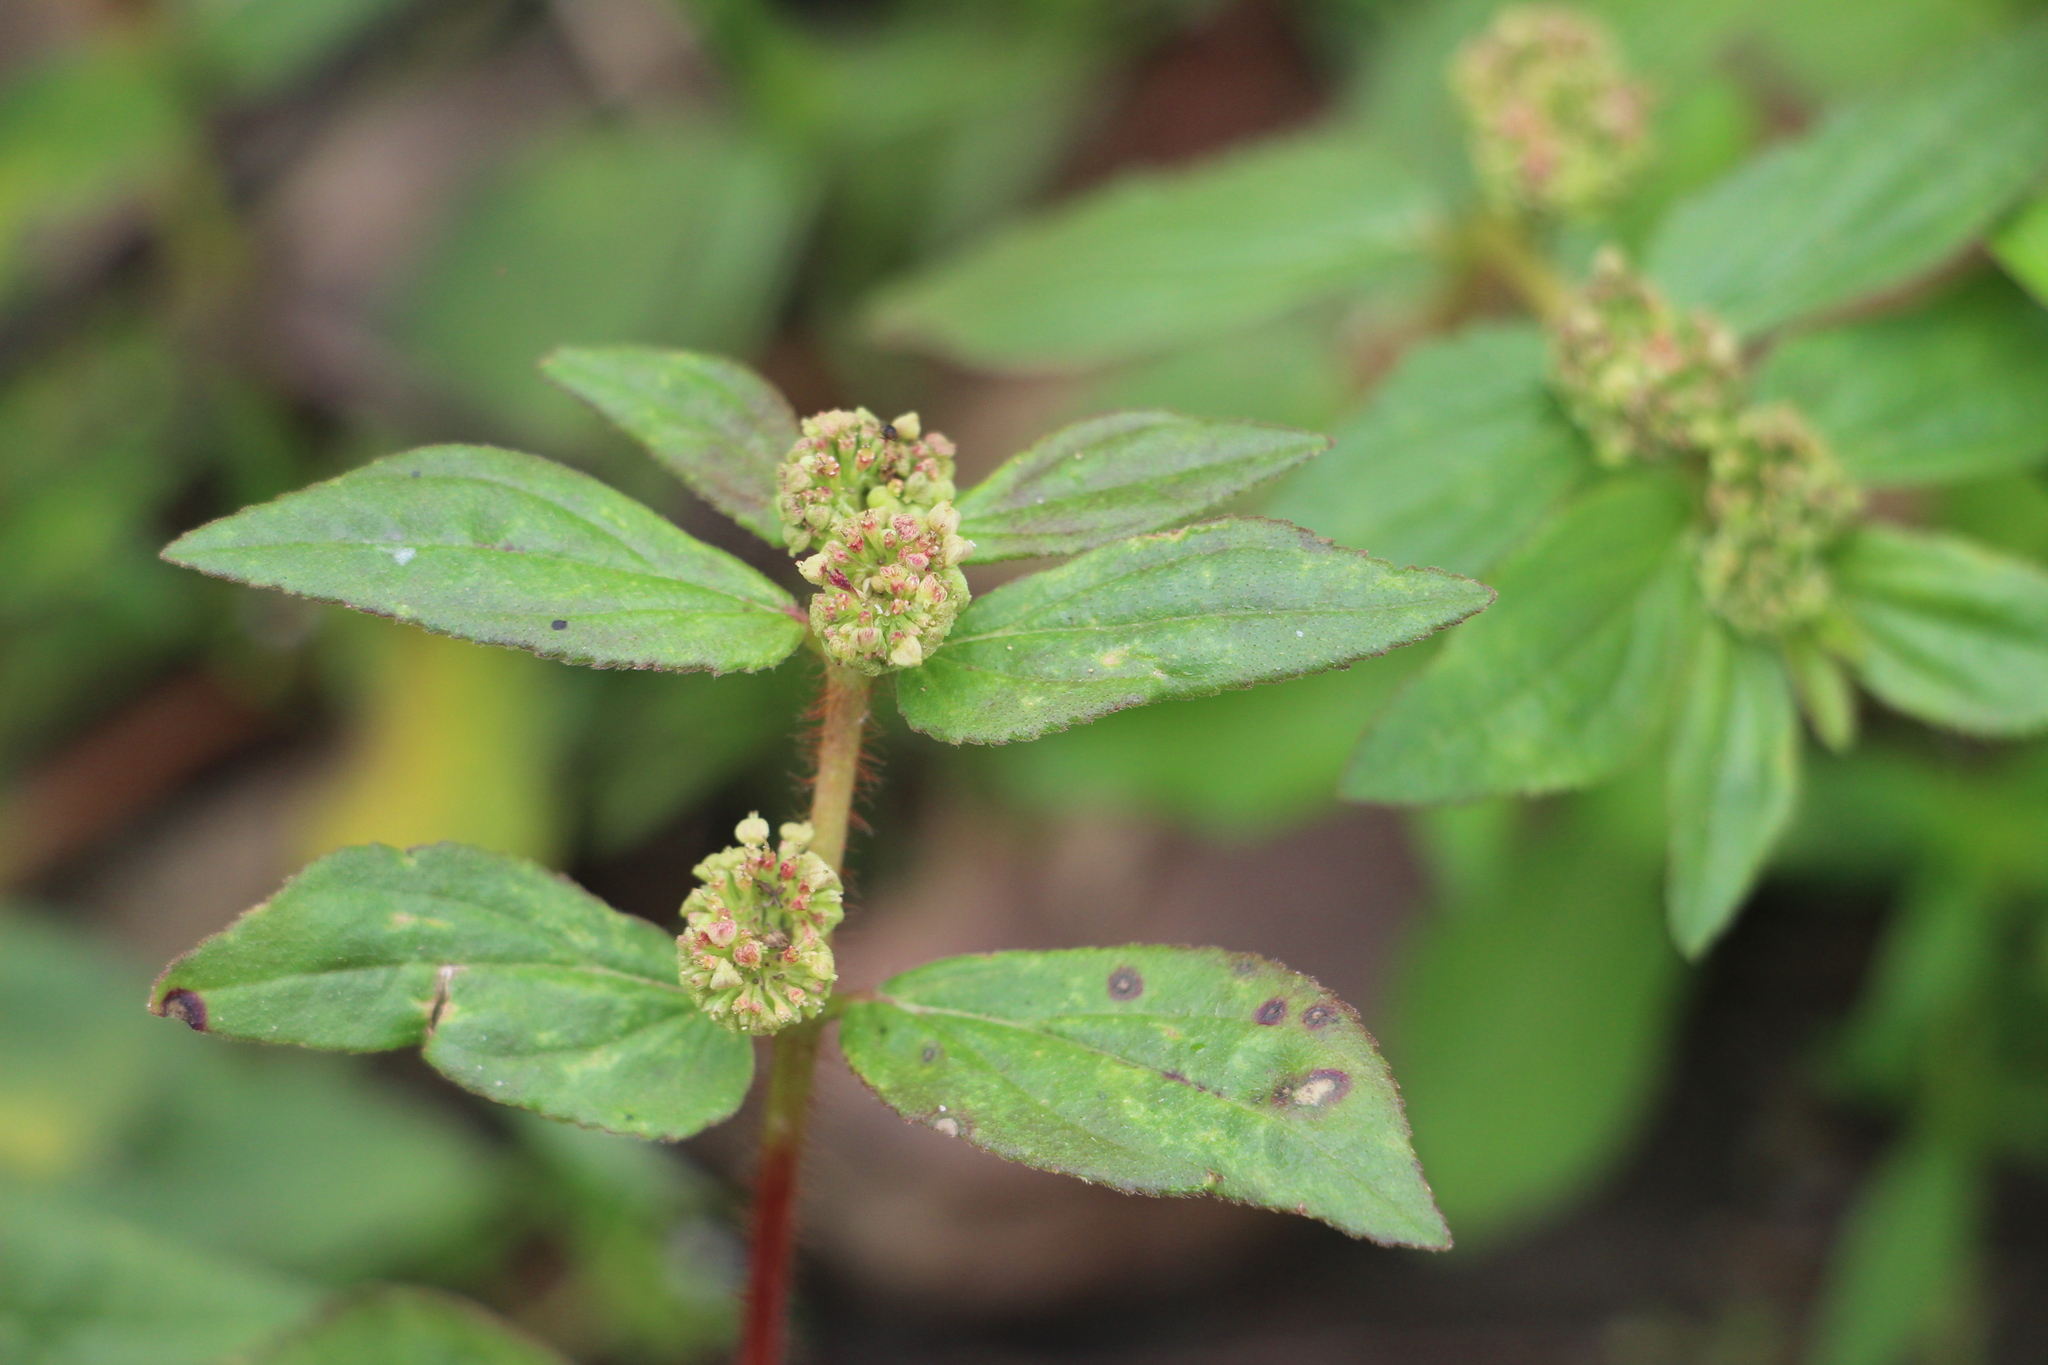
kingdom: Plantae
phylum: Tracheophyta
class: Magnoliopsida
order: Malpighiales
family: Euphorbiaceae
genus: Euphorbia
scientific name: Euphorbia hirta
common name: Pillpod sandmat
